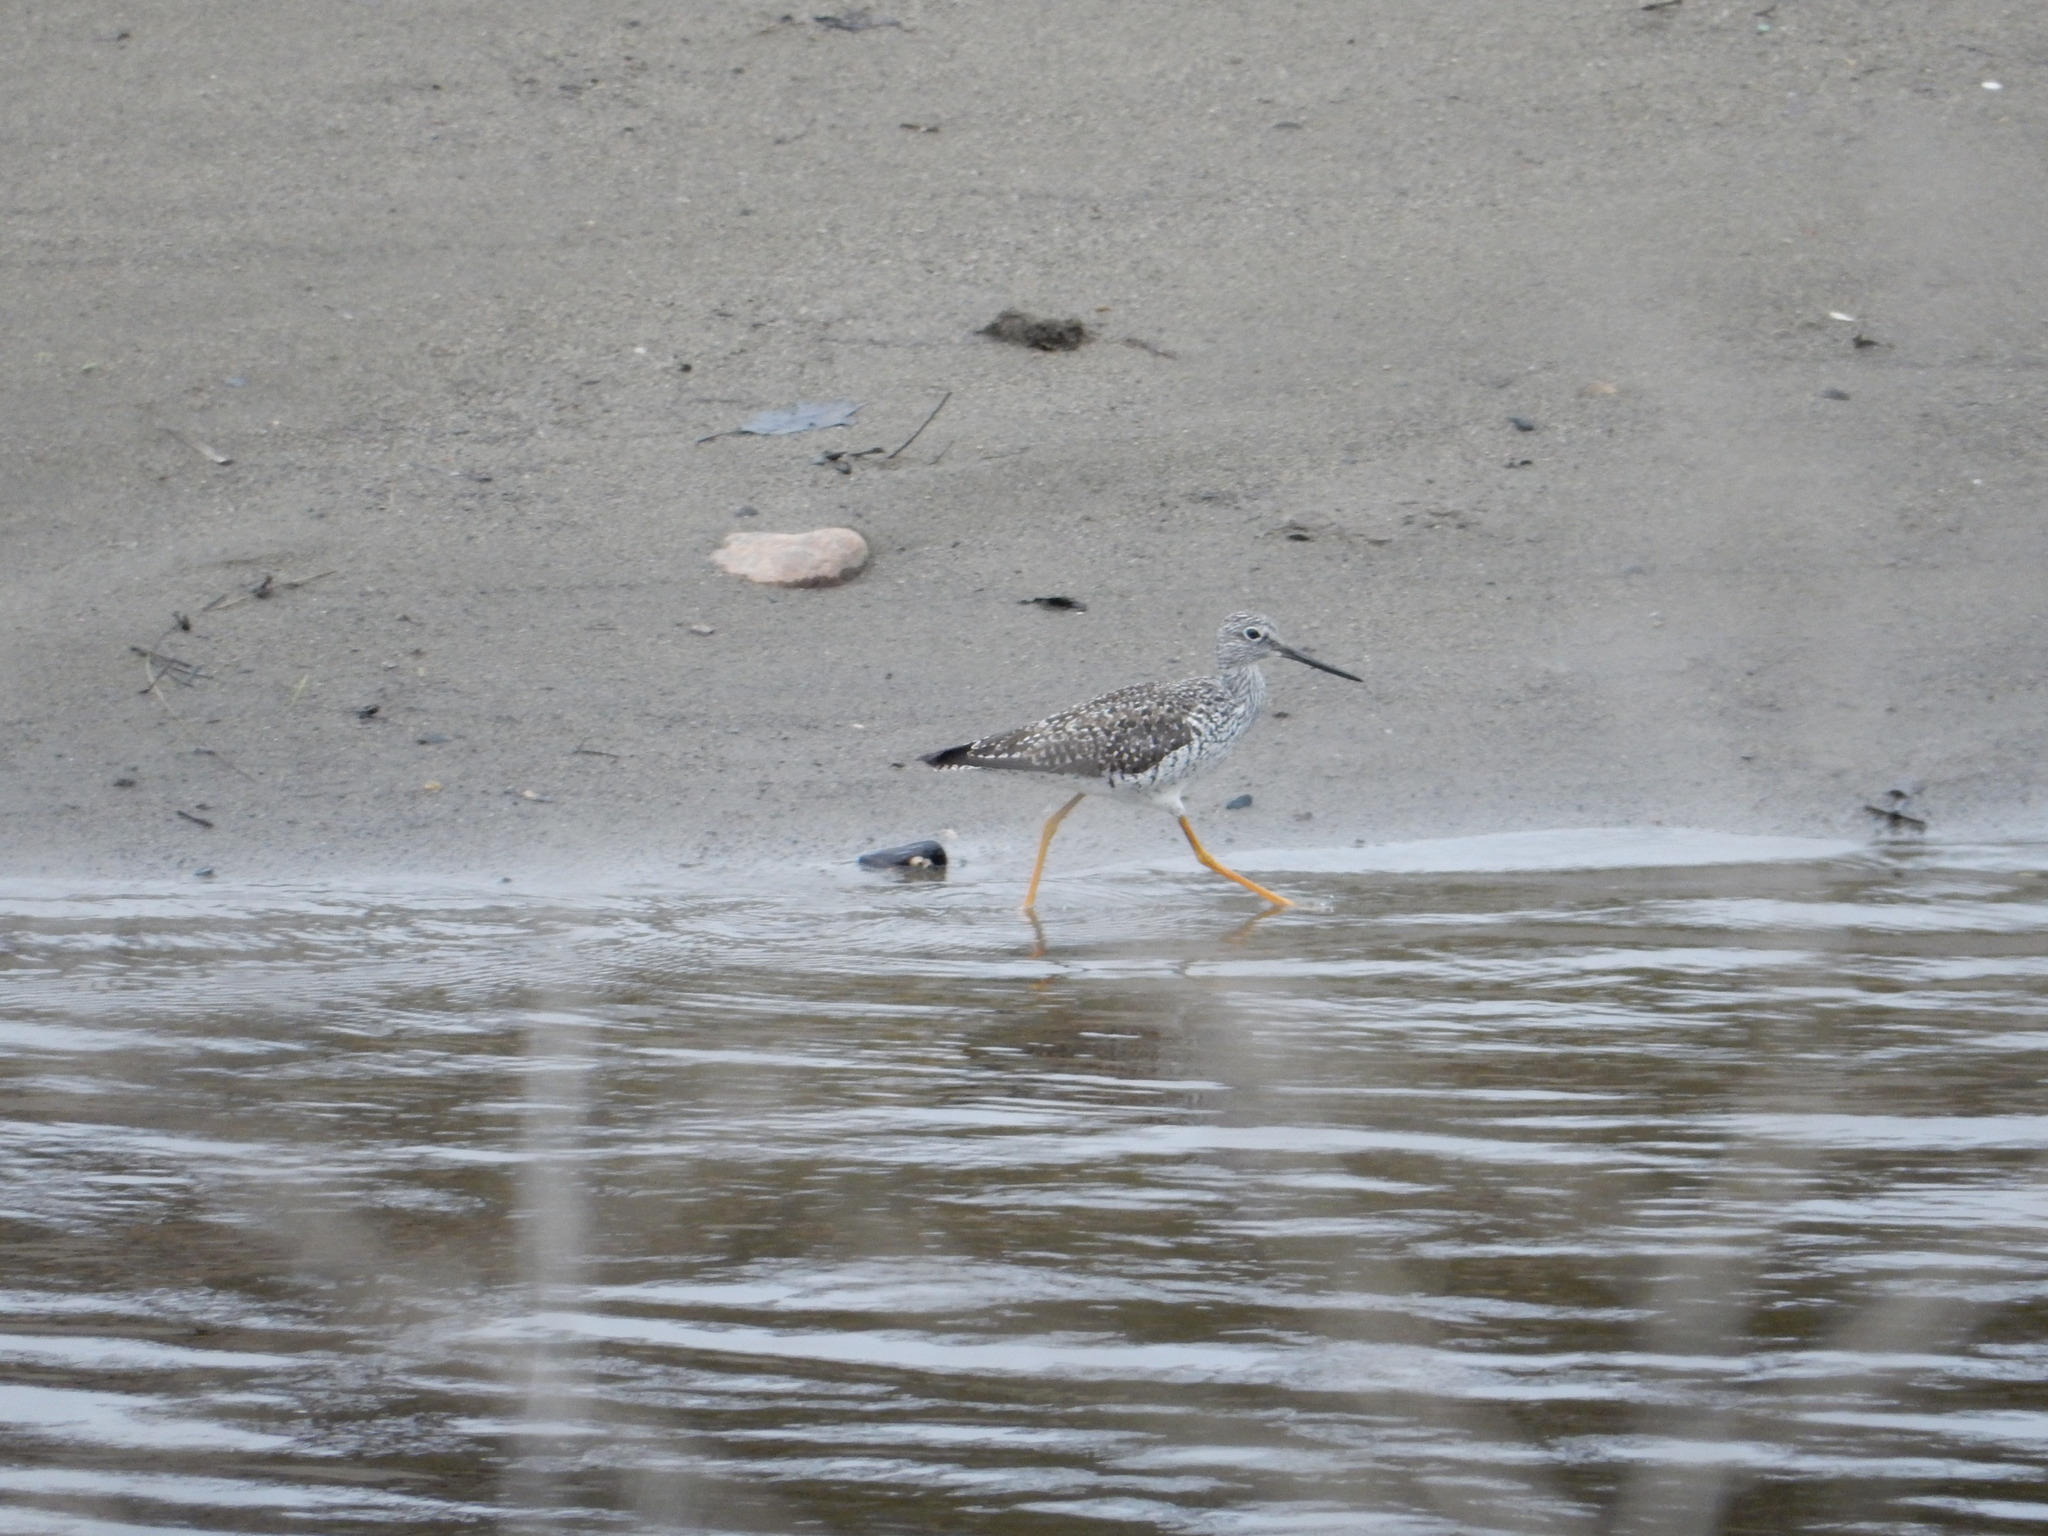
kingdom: Animalia
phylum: Chordata
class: Aves
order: Charadriiformes
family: Scolopacidae
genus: Tringa
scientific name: Tringa melanoleuca
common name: Greater yellowlegs
